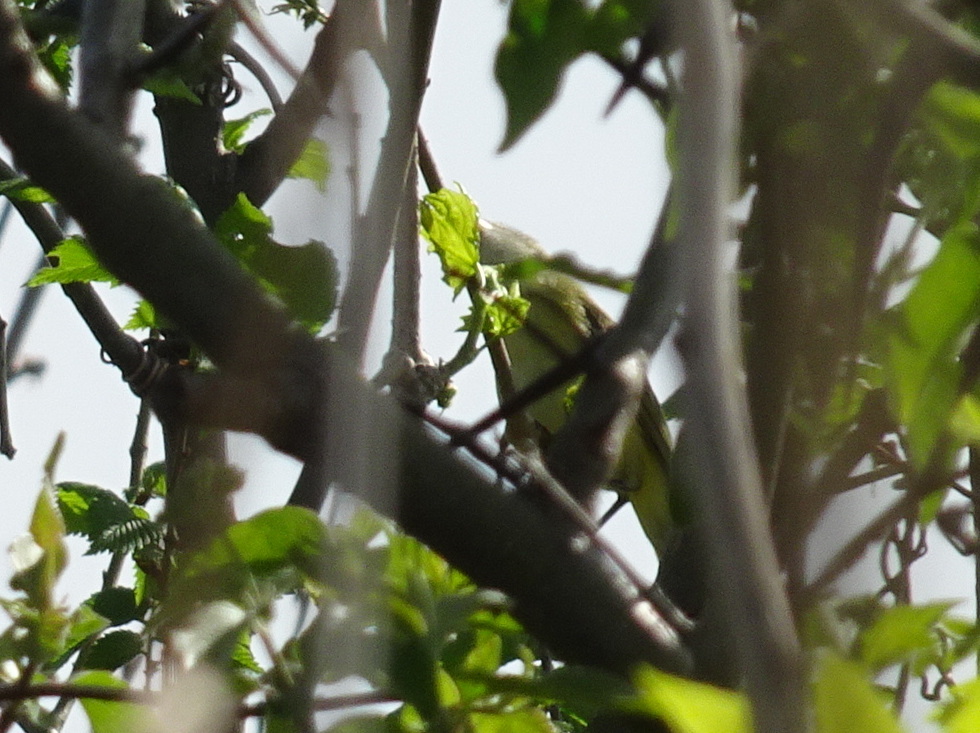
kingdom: Animalia
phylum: Chordata
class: Aves
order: Passeriformes
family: Vireonidae
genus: Vireo
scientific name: Vireo bellii
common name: Bell's vireo
